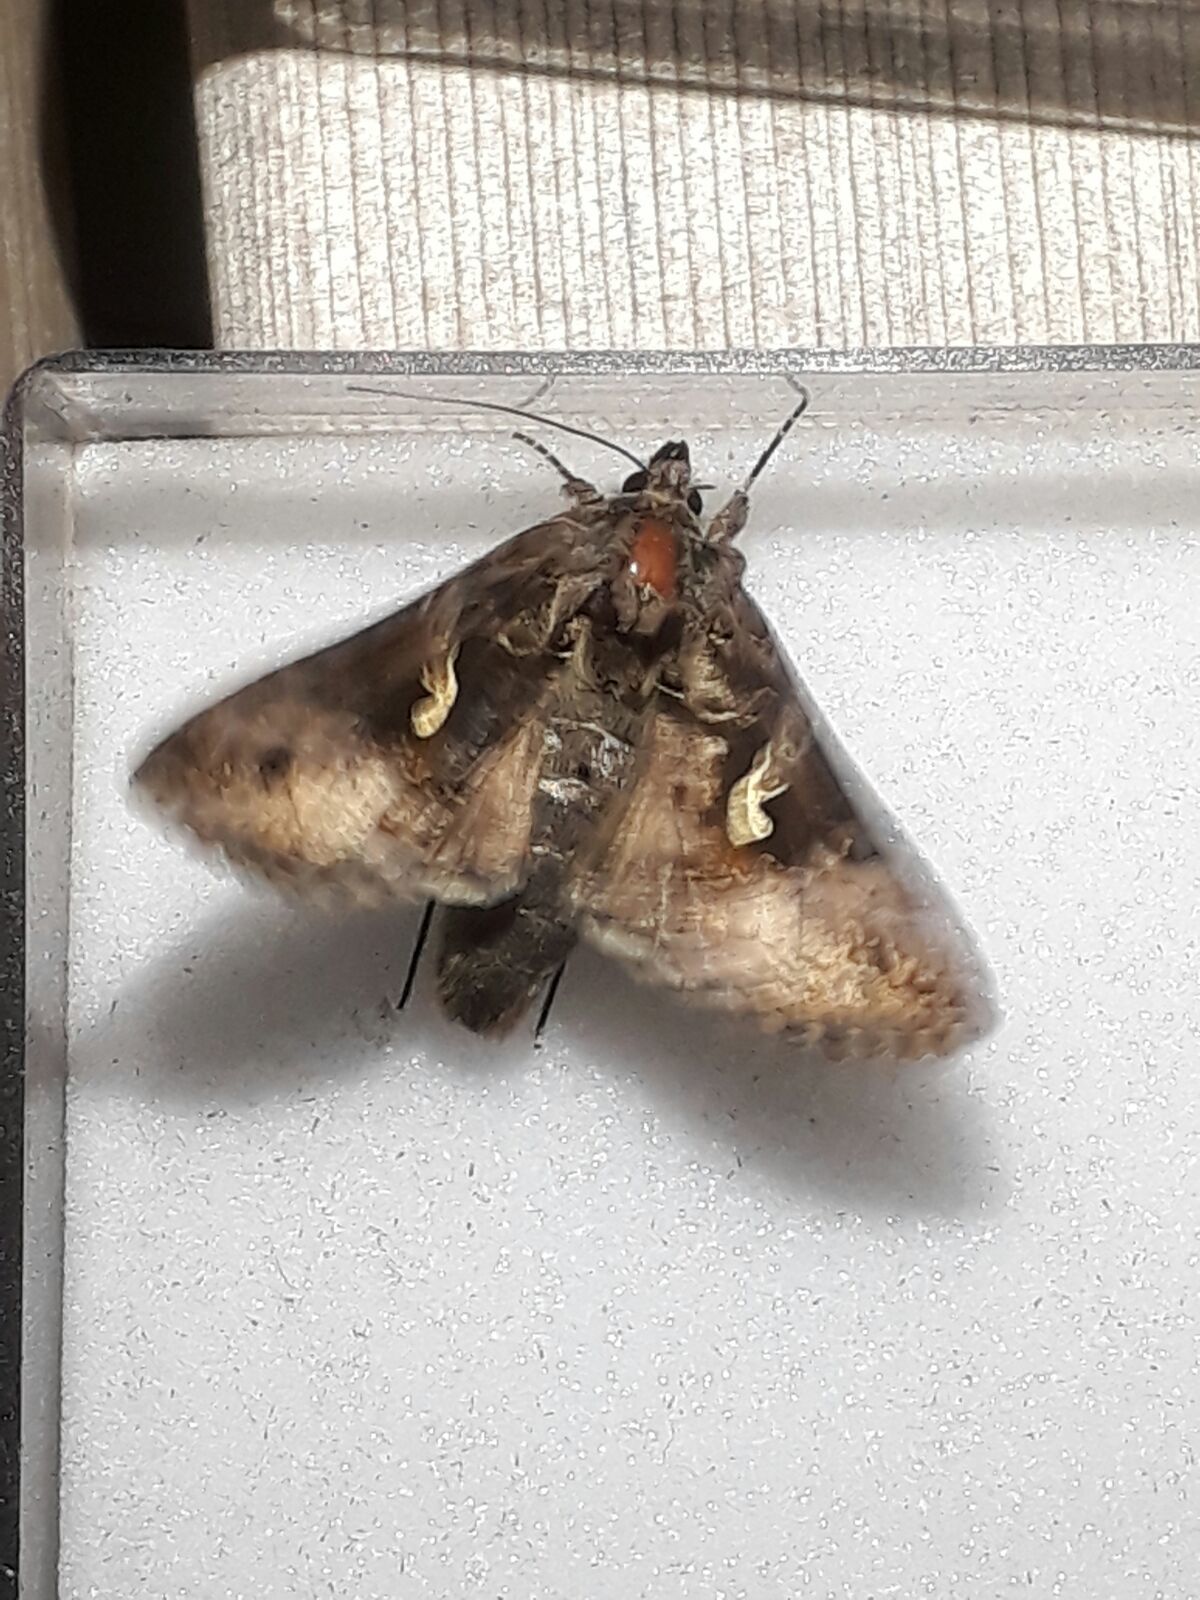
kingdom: Animalia
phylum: Arthropoda
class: Insecta
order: Lepidoptera
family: Noctuidae
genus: Autographa
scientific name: Autographa gamma
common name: Silver y
